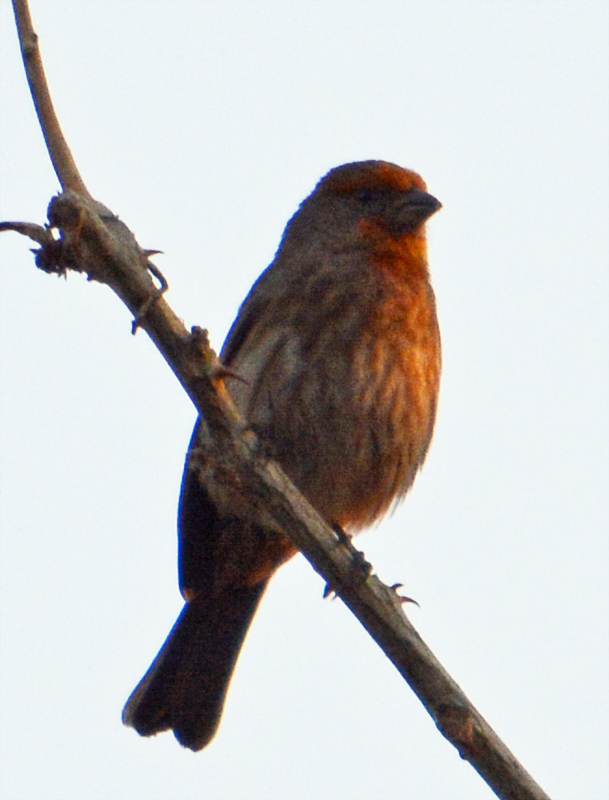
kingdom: Animalia
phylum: Chordata
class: Aves
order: Passeriformes
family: Fringillidae
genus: Haemorhous
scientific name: Haemorhous mexicanus
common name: House finch
